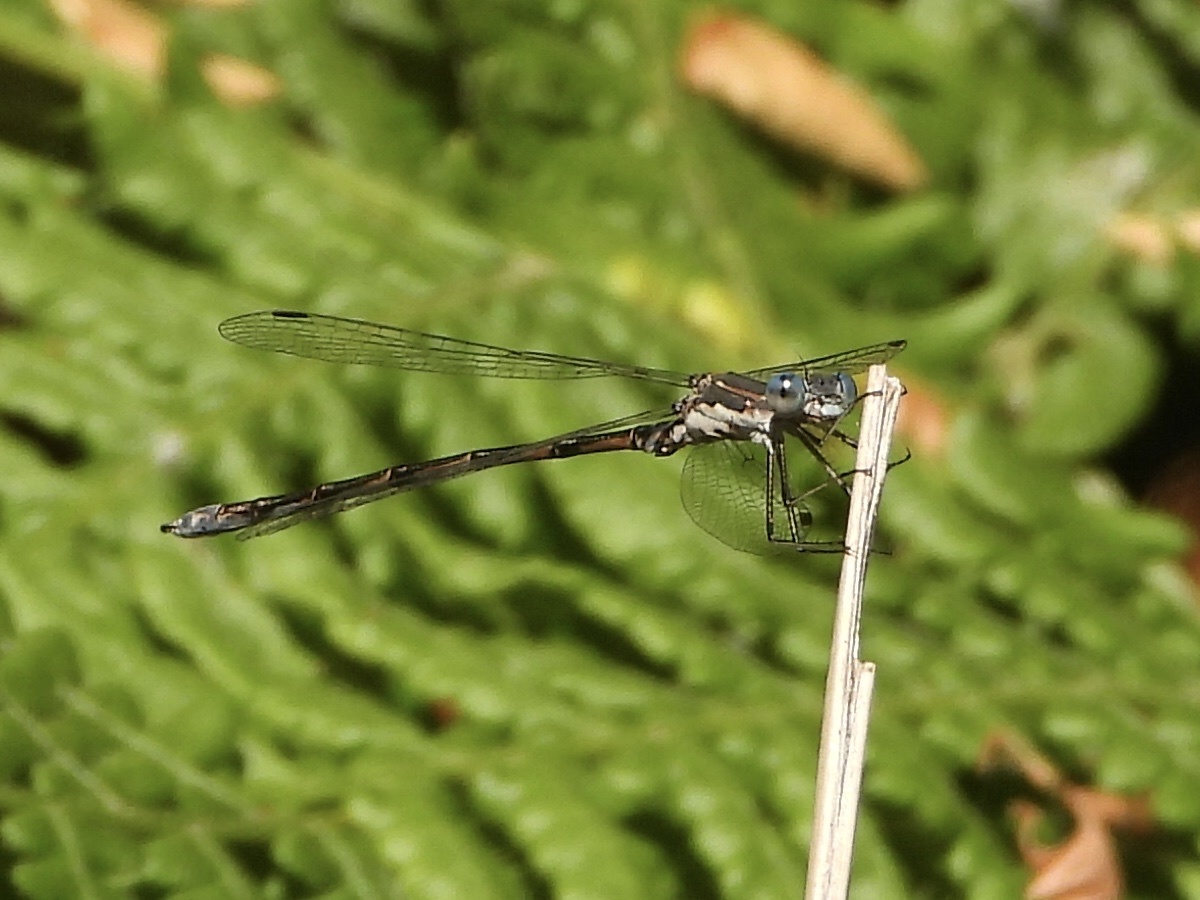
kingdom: Animalia
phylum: Arthropoda
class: Insecta
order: Odonata
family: Lestidae
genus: Lestes
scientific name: Lestes congener
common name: Spotted spreadwing
